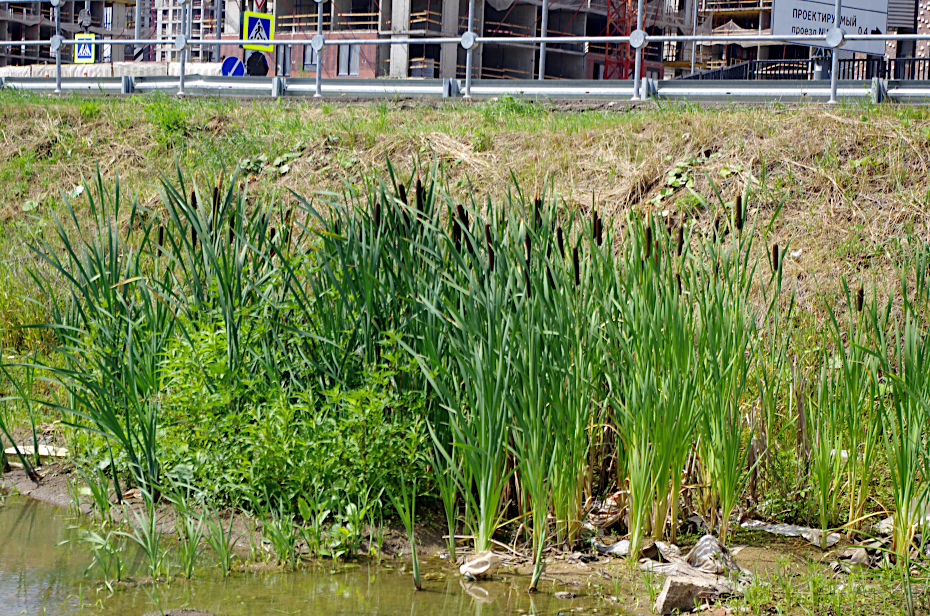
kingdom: Plantae
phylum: Tracheophyta
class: Liliopsida
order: Poales
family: Typhaceae
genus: Typha
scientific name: Typha latifolia
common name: Broadleaf cattail
